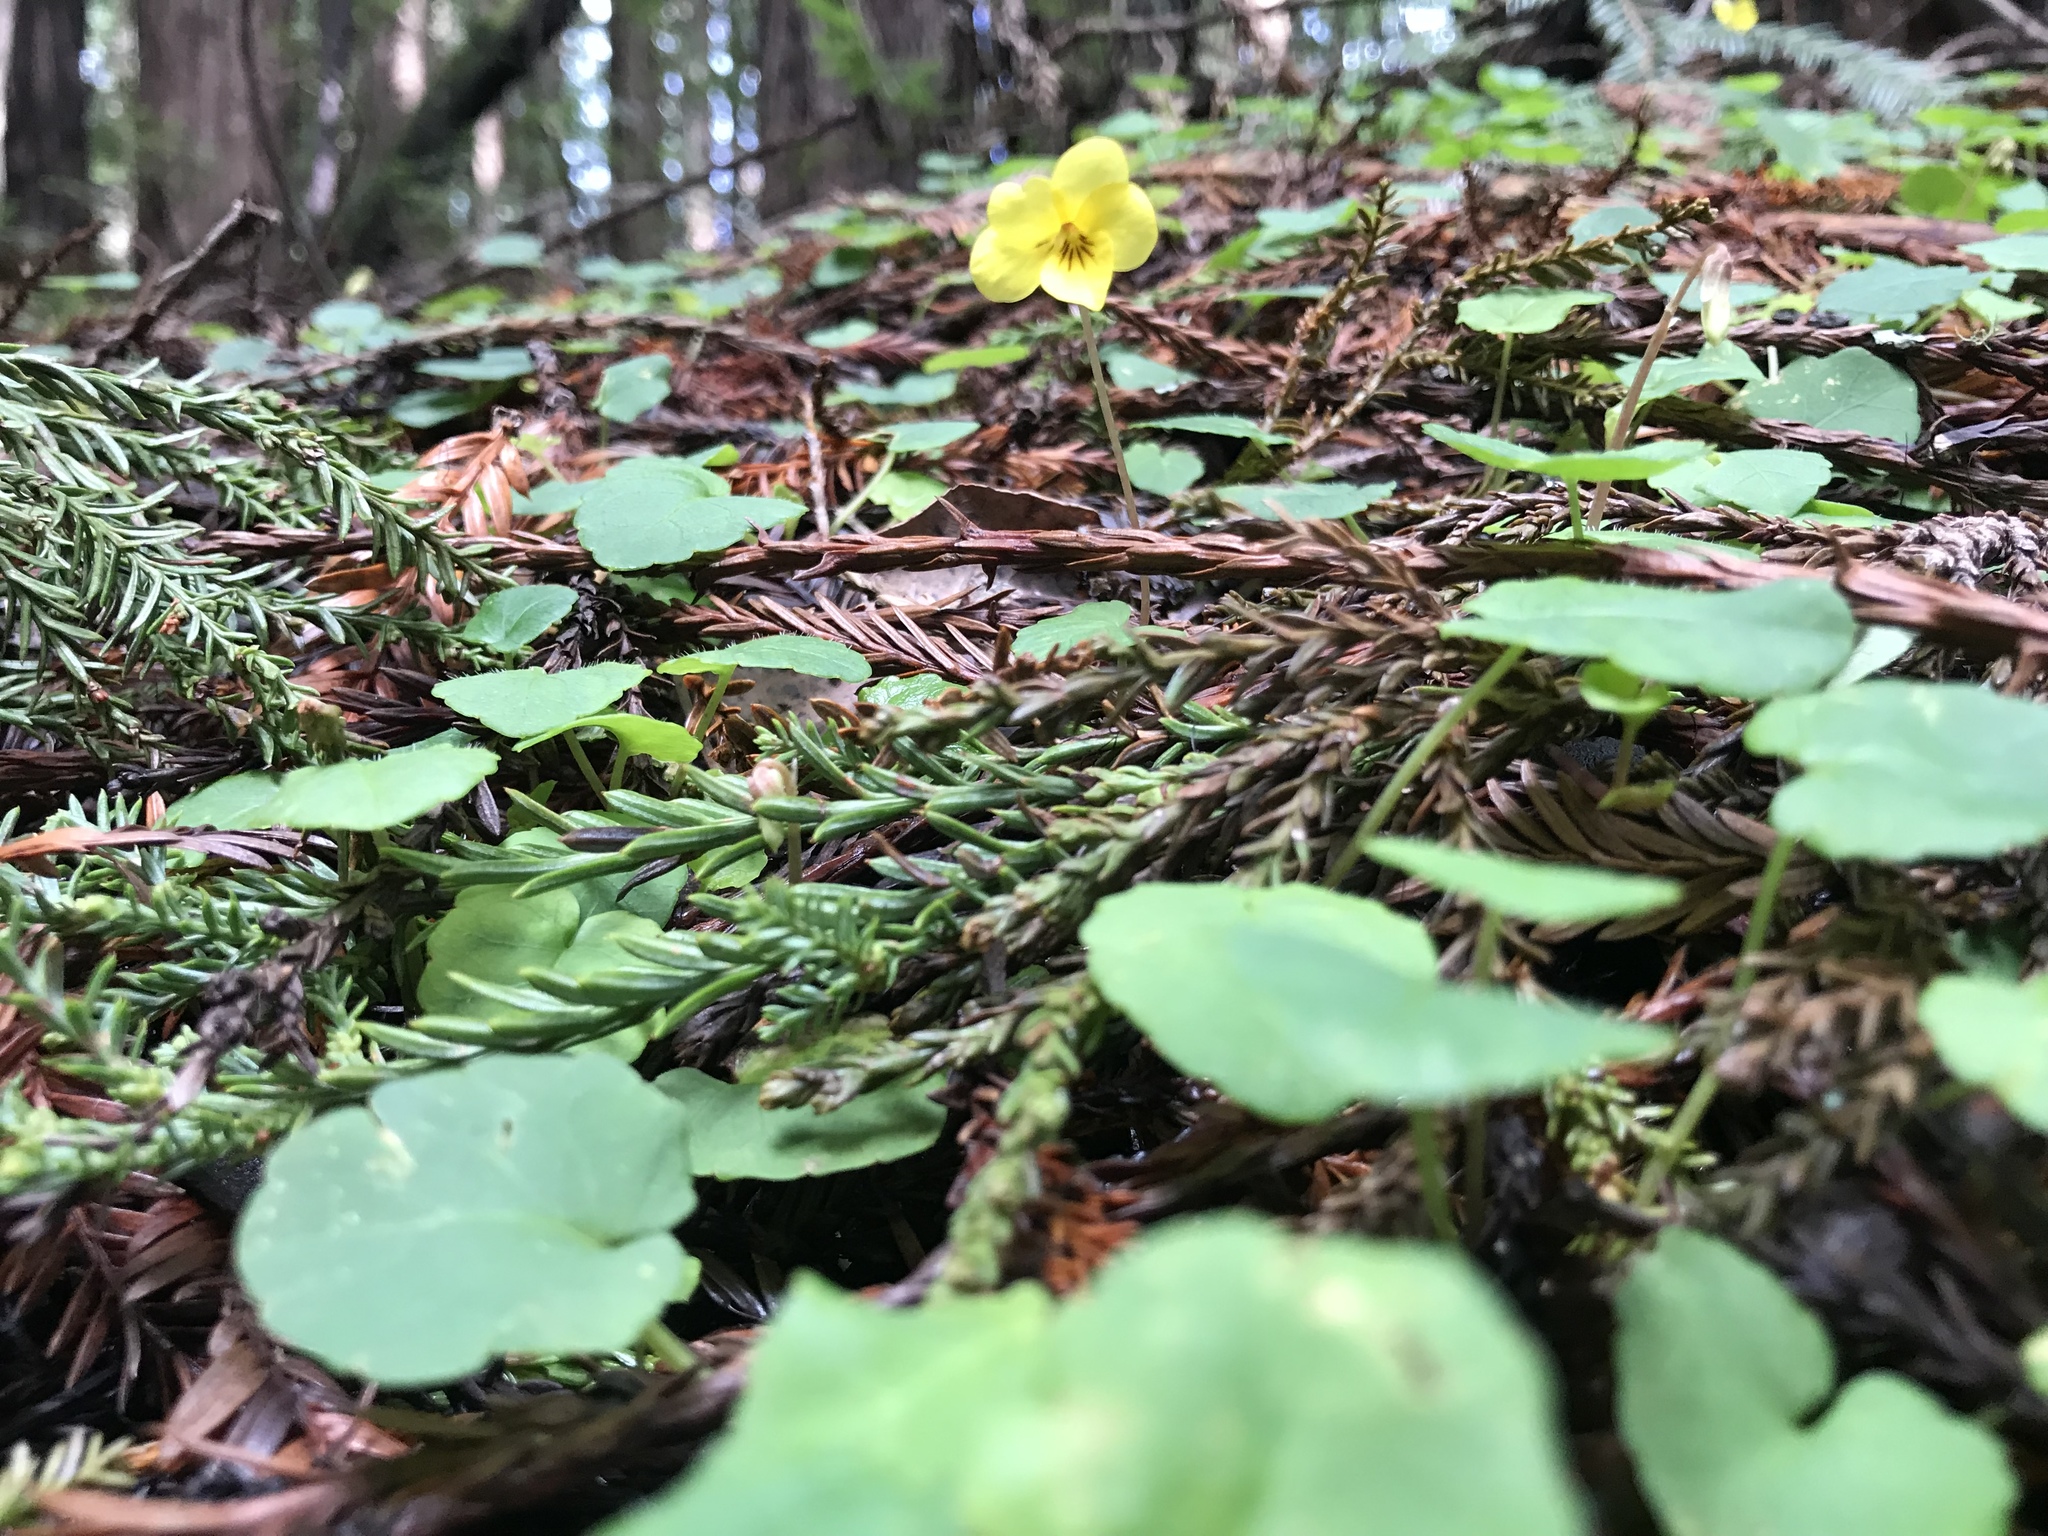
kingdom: Plantae
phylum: Tracheophyta
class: Magnoliopsida
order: Malpighiales
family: Violaceae
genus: Viola
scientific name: Viola sempervirens
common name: Evergreen violet
